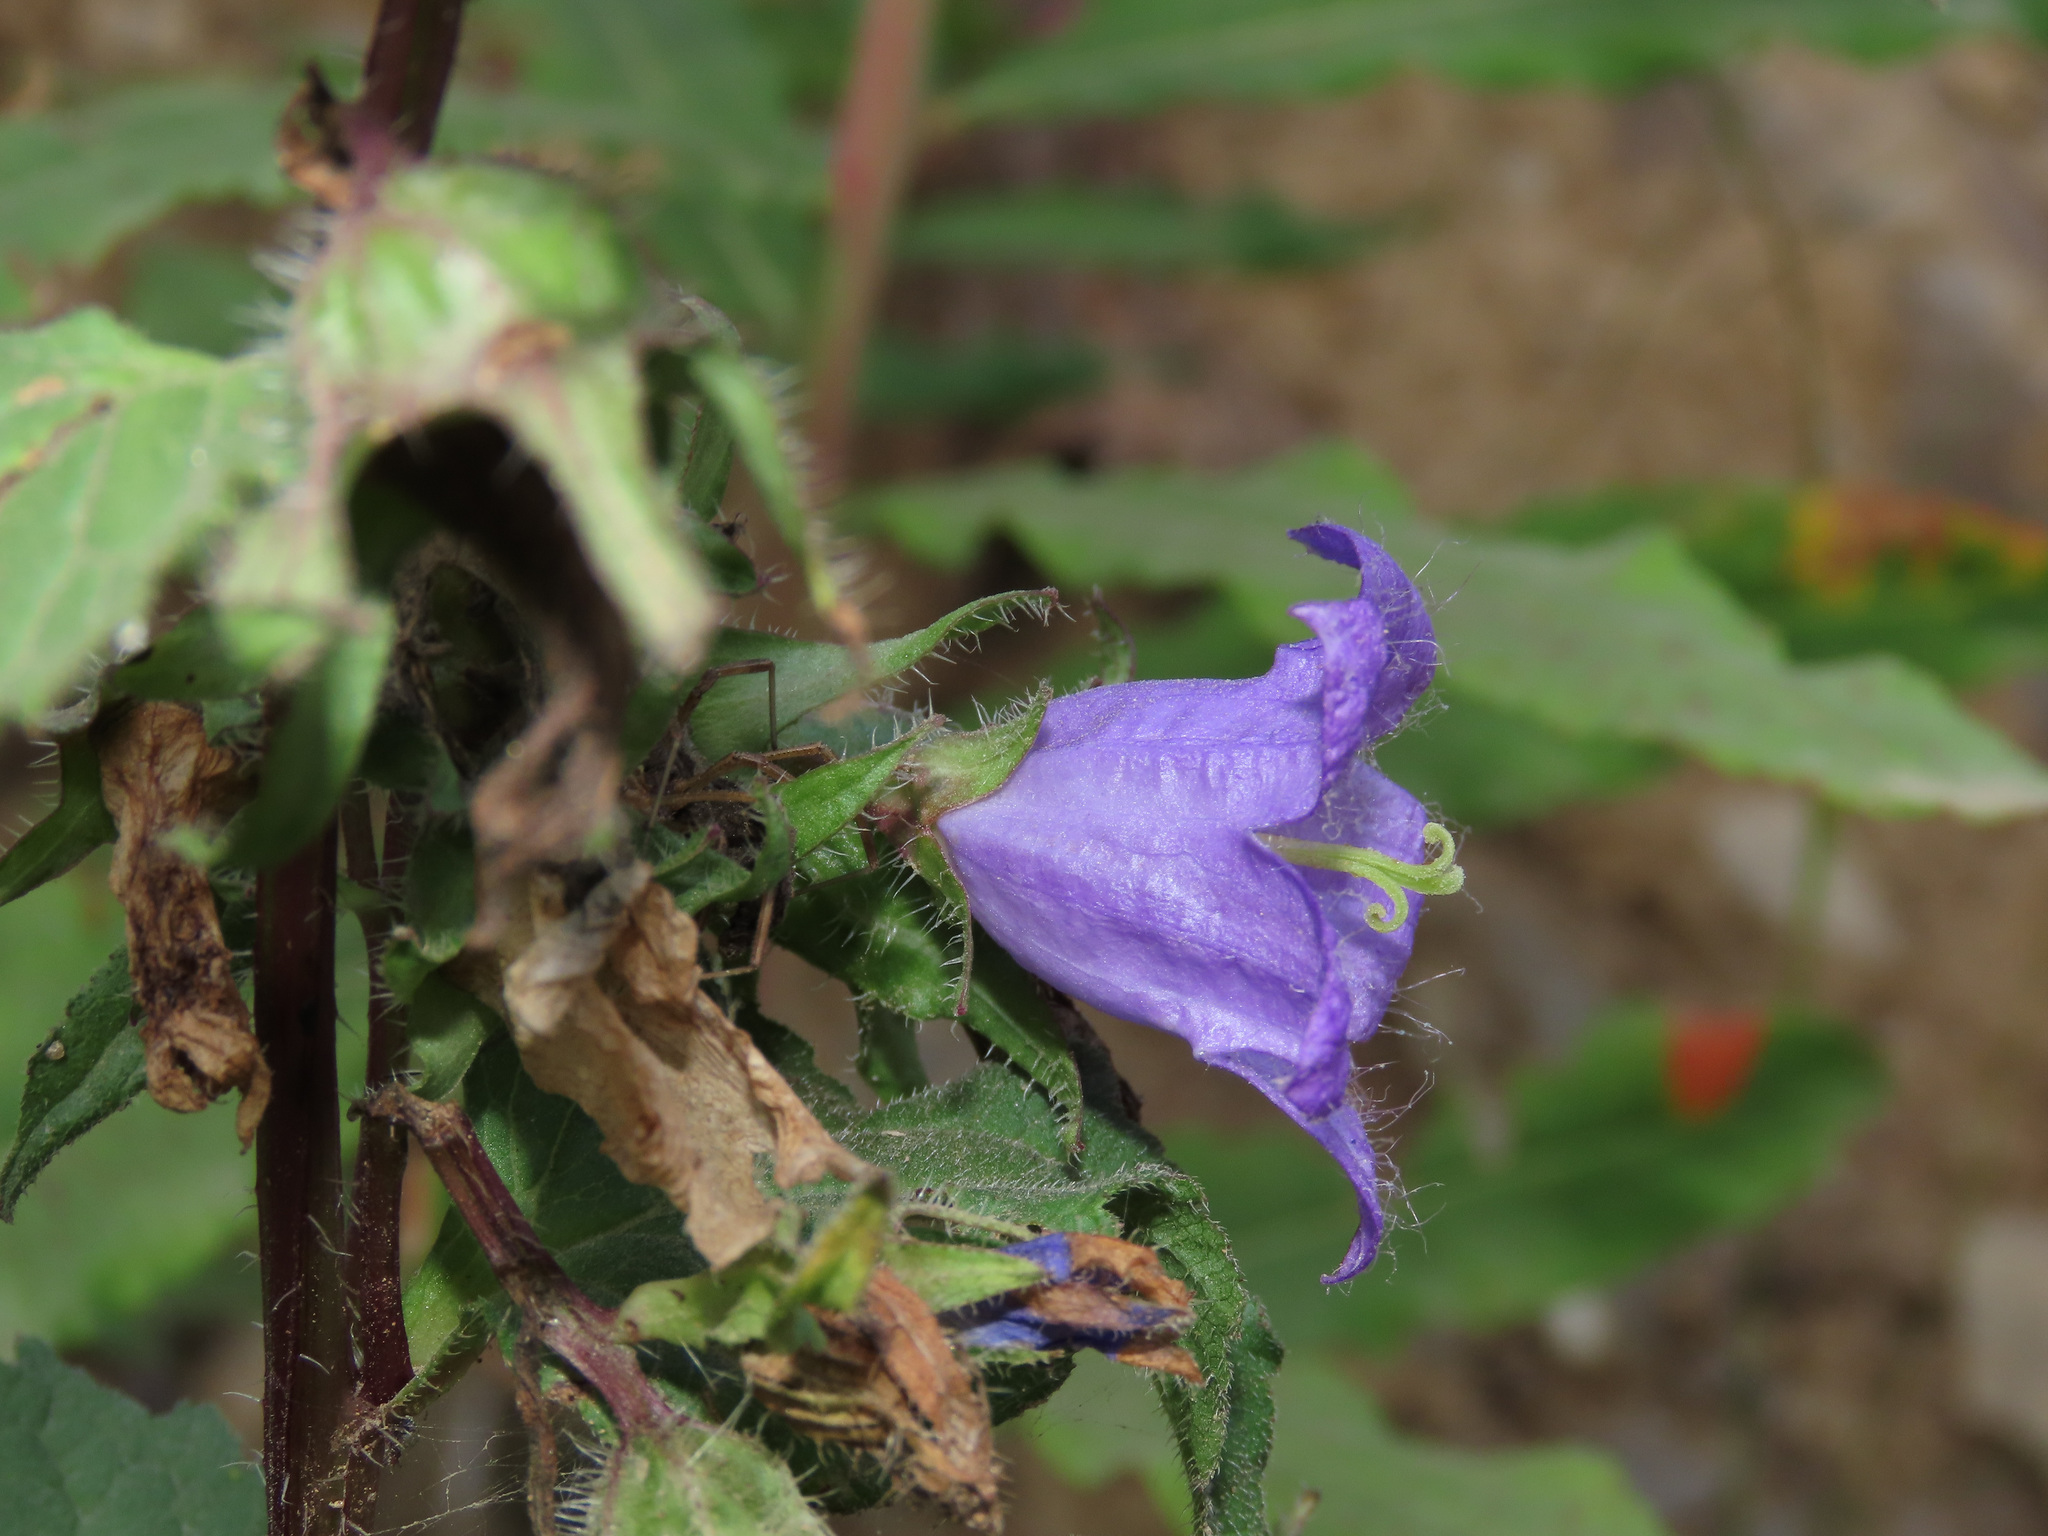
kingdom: Plantae
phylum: Tracheophyta
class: Magnoliopsida
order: Asterales
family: Campanulaceae
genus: Campanula
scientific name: Campanula trachelium
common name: Nettle-leaved bellflower
